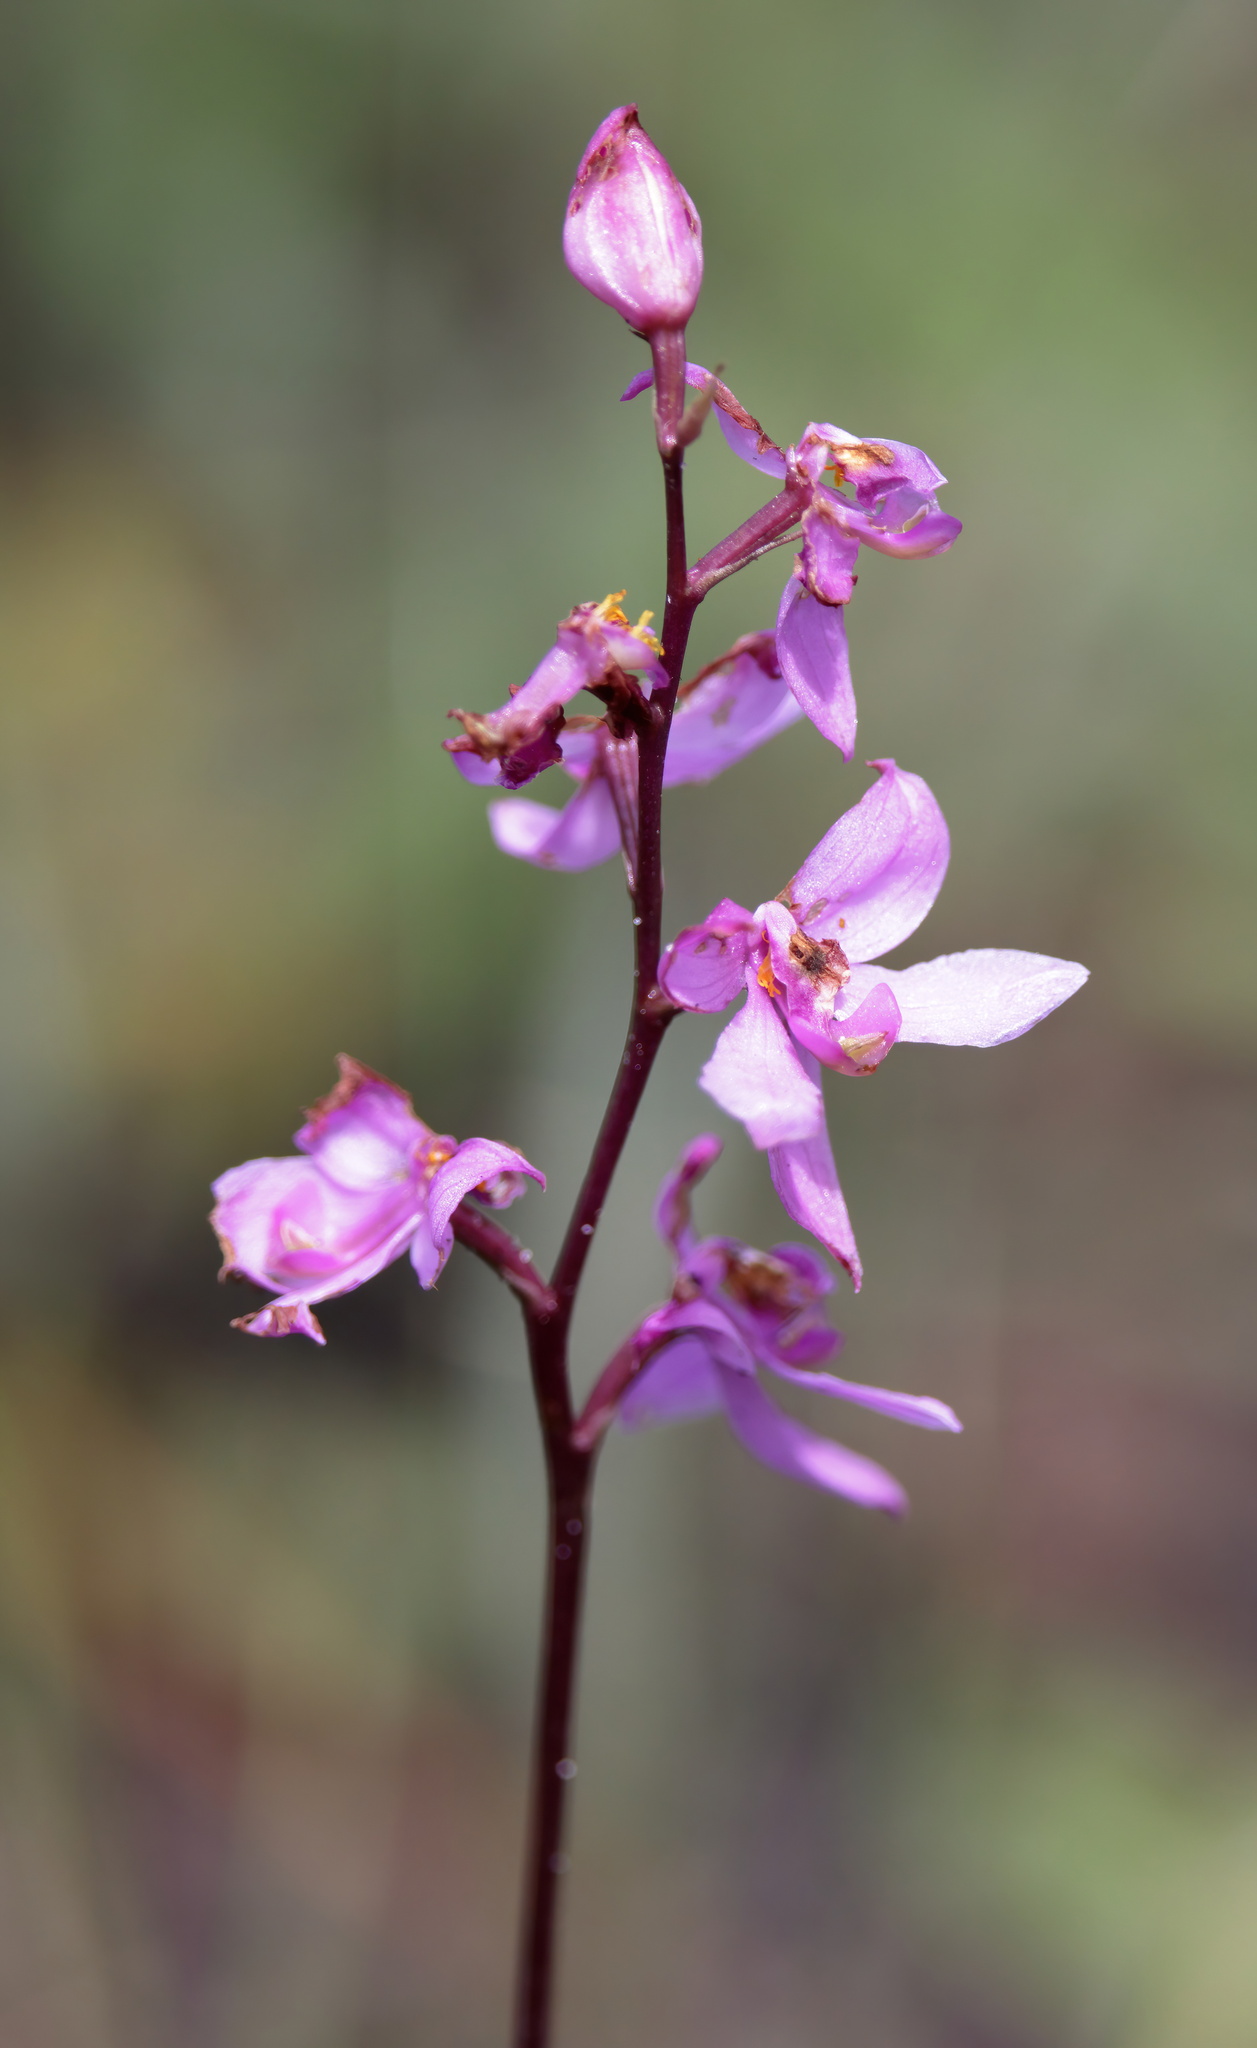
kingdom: Plantae
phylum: Tracheophyta
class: Liliopsida
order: Asparagales
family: Orchidaceae
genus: Calopogon
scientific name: Calopogon multiflorus
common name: Many-flowered grass-pink orchid
